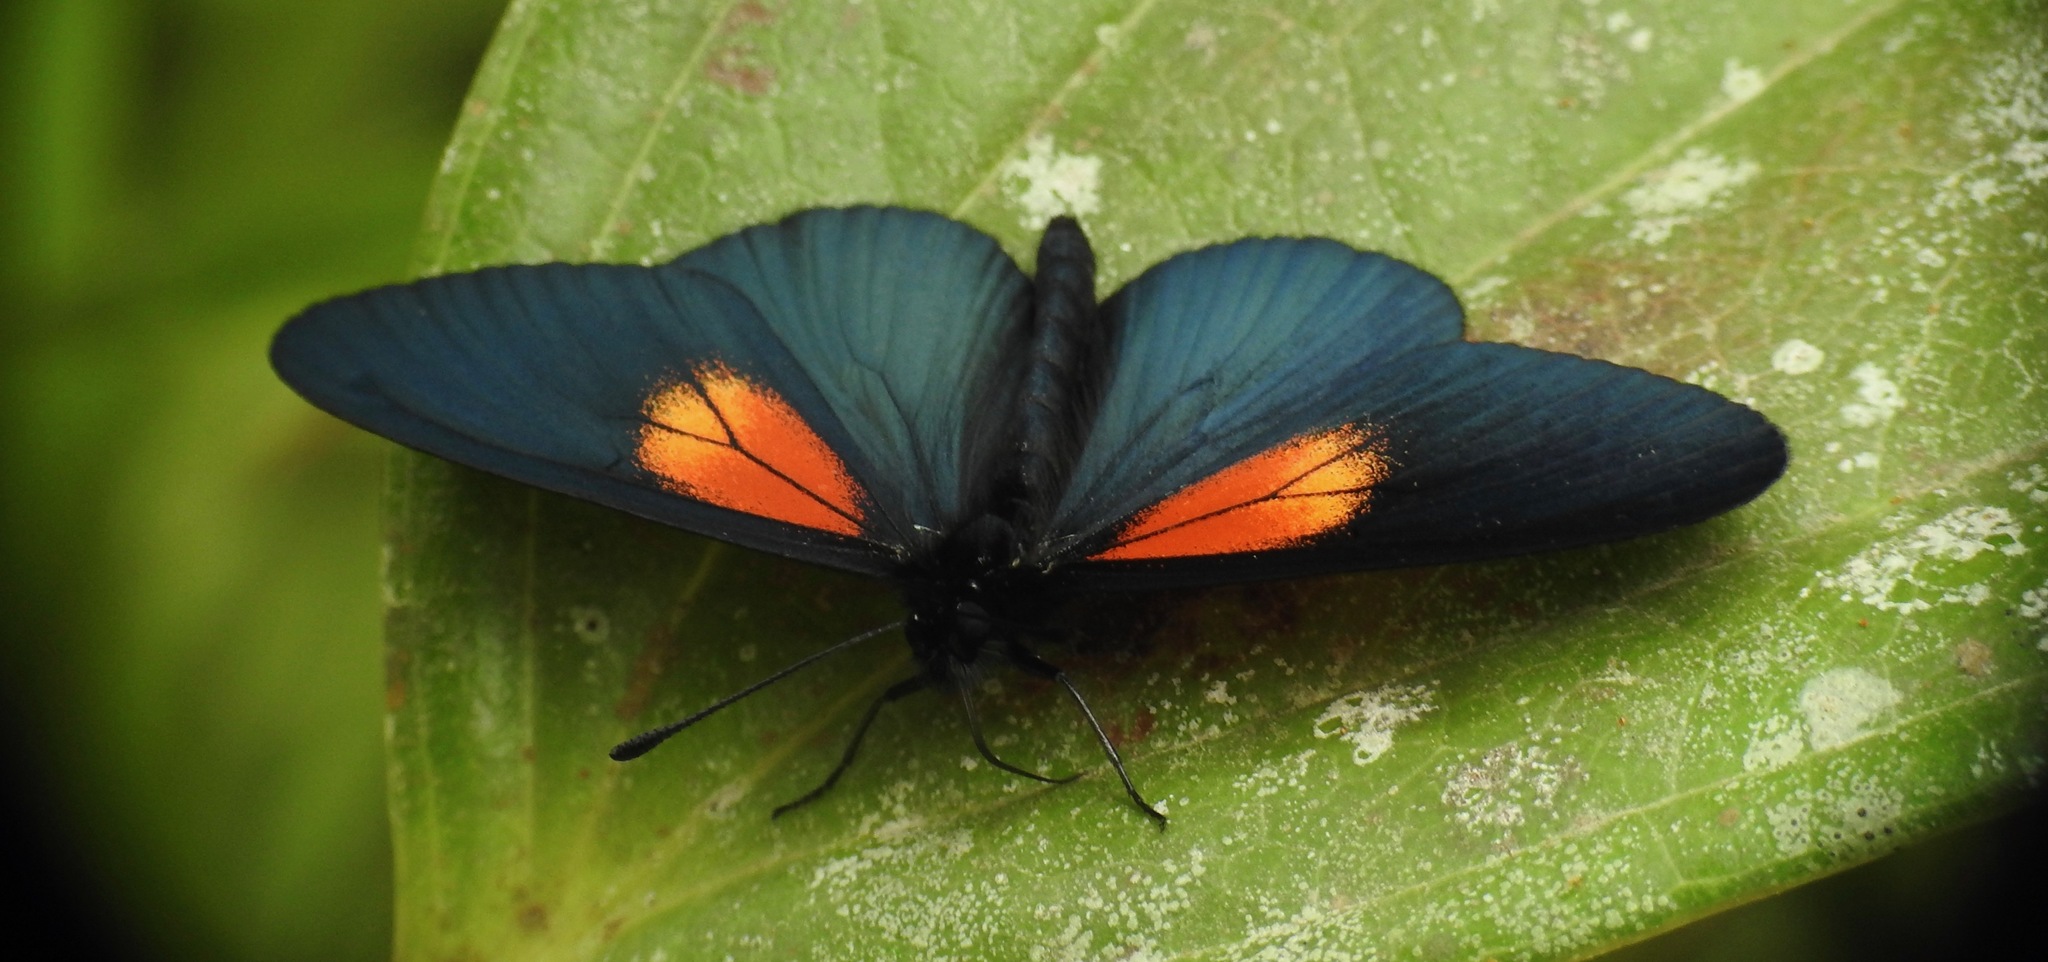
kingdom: Animalia
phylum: Arthropoda
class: Insecta
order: Lepidoptera
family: Nymphalidae
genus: Acraea
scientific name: Acraea Altinote ozomene
